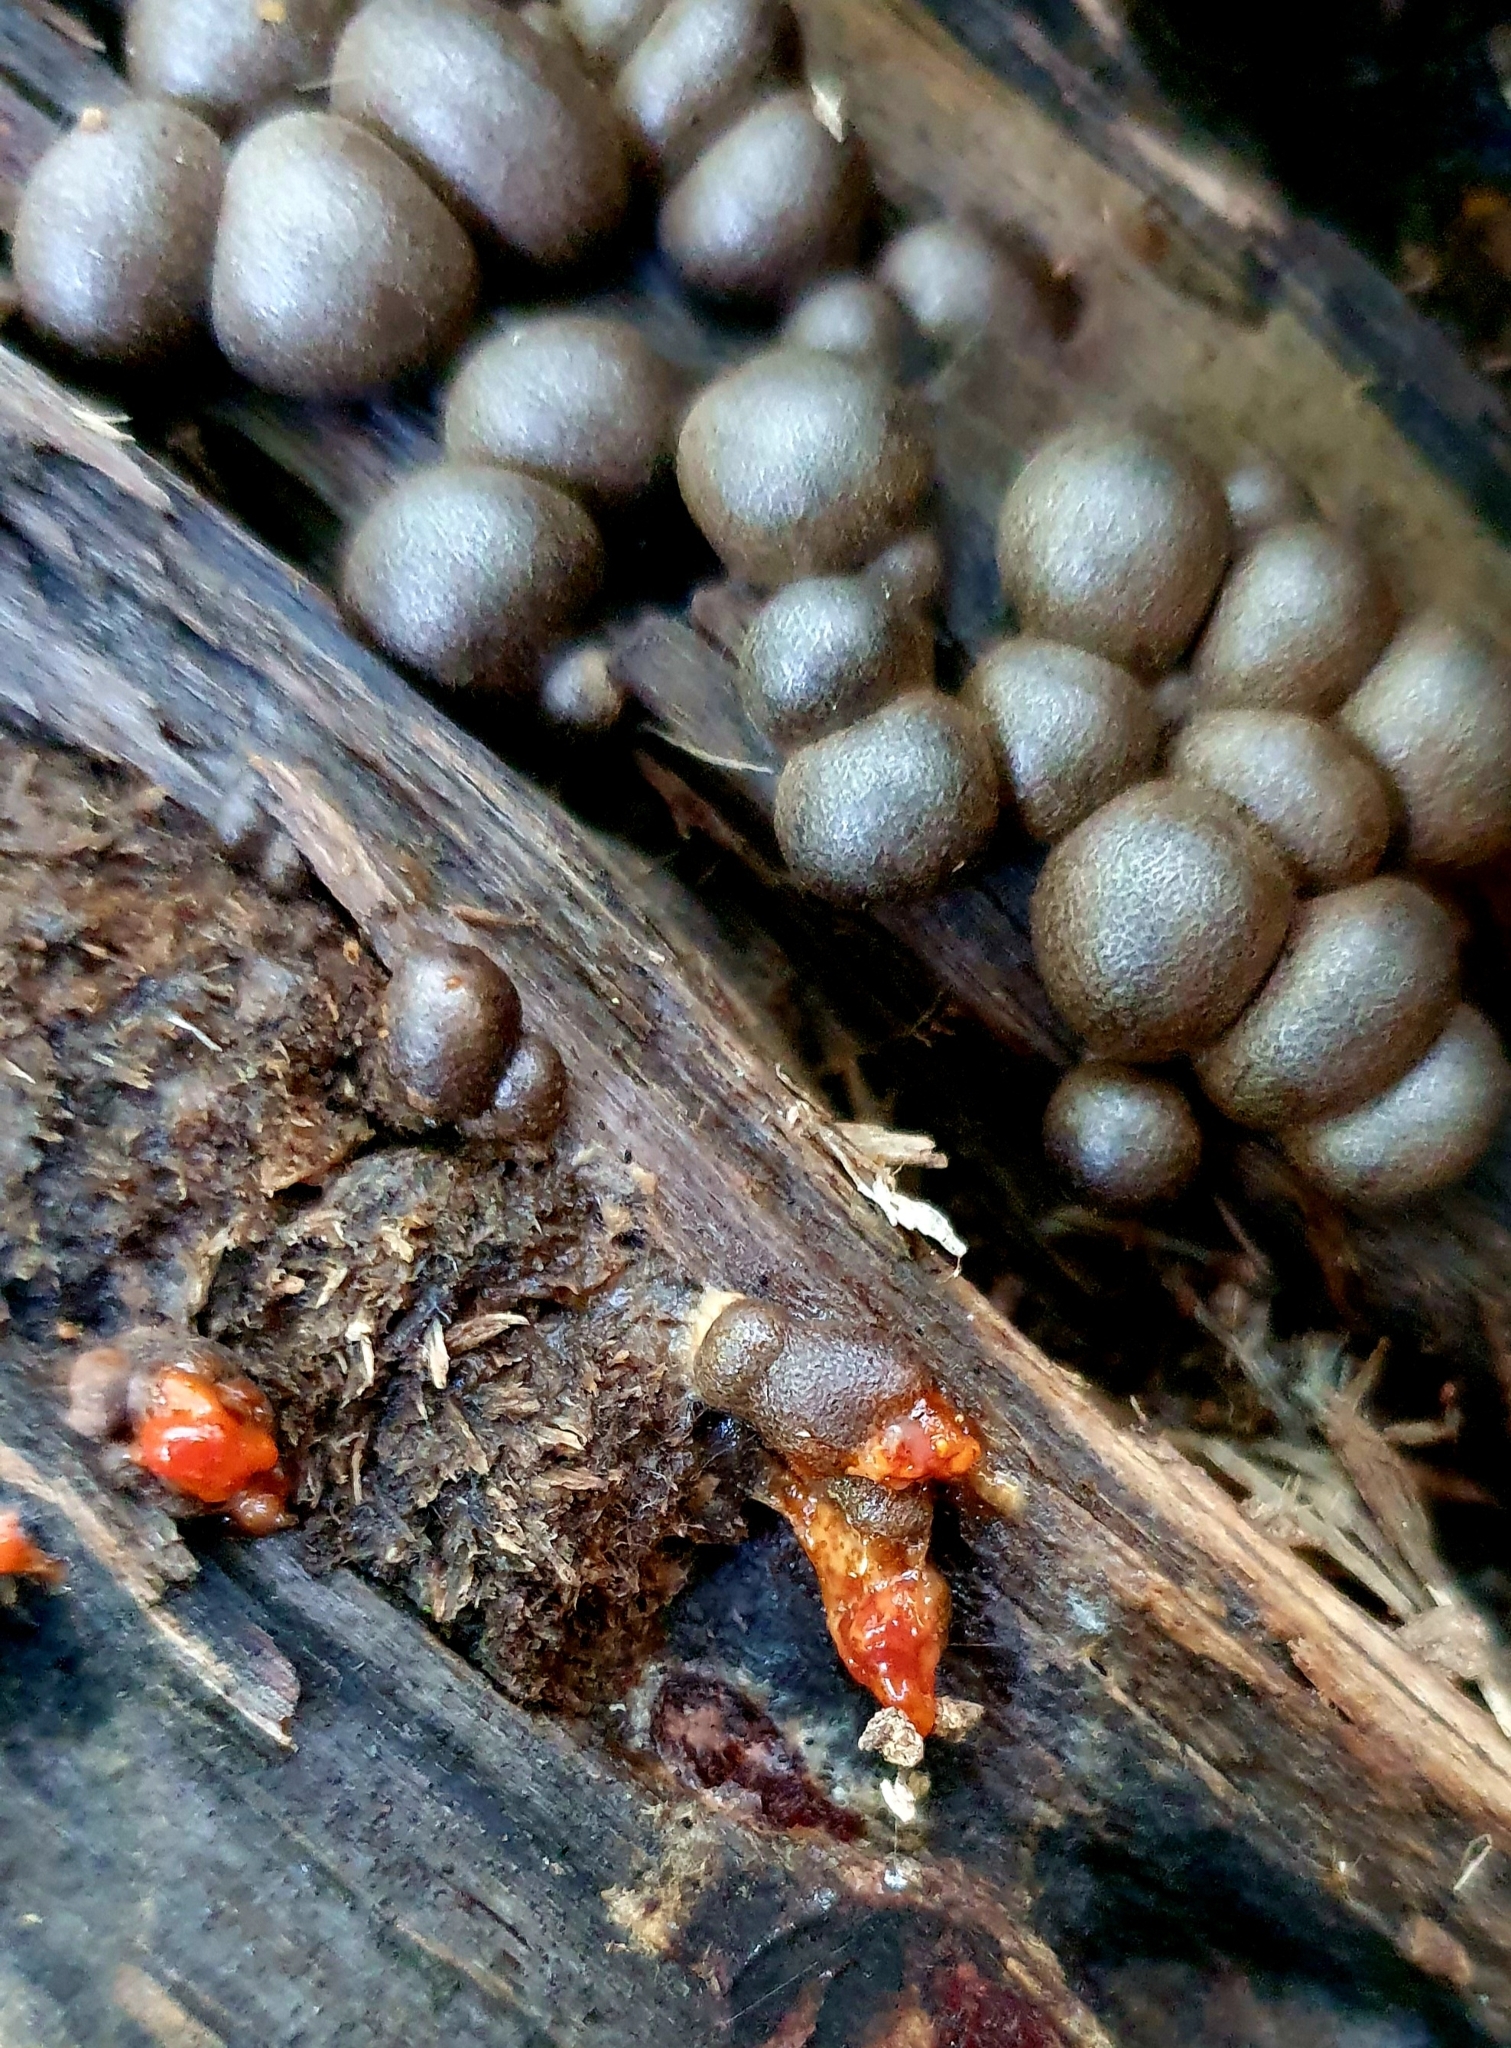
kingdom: Protozoa
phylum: Mycetozoa
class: Myxomycetes
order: Cribrariales
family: Tubiferaceae
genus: Lycogala
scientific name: Lycogala epidendrum
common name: Wolf's milk
